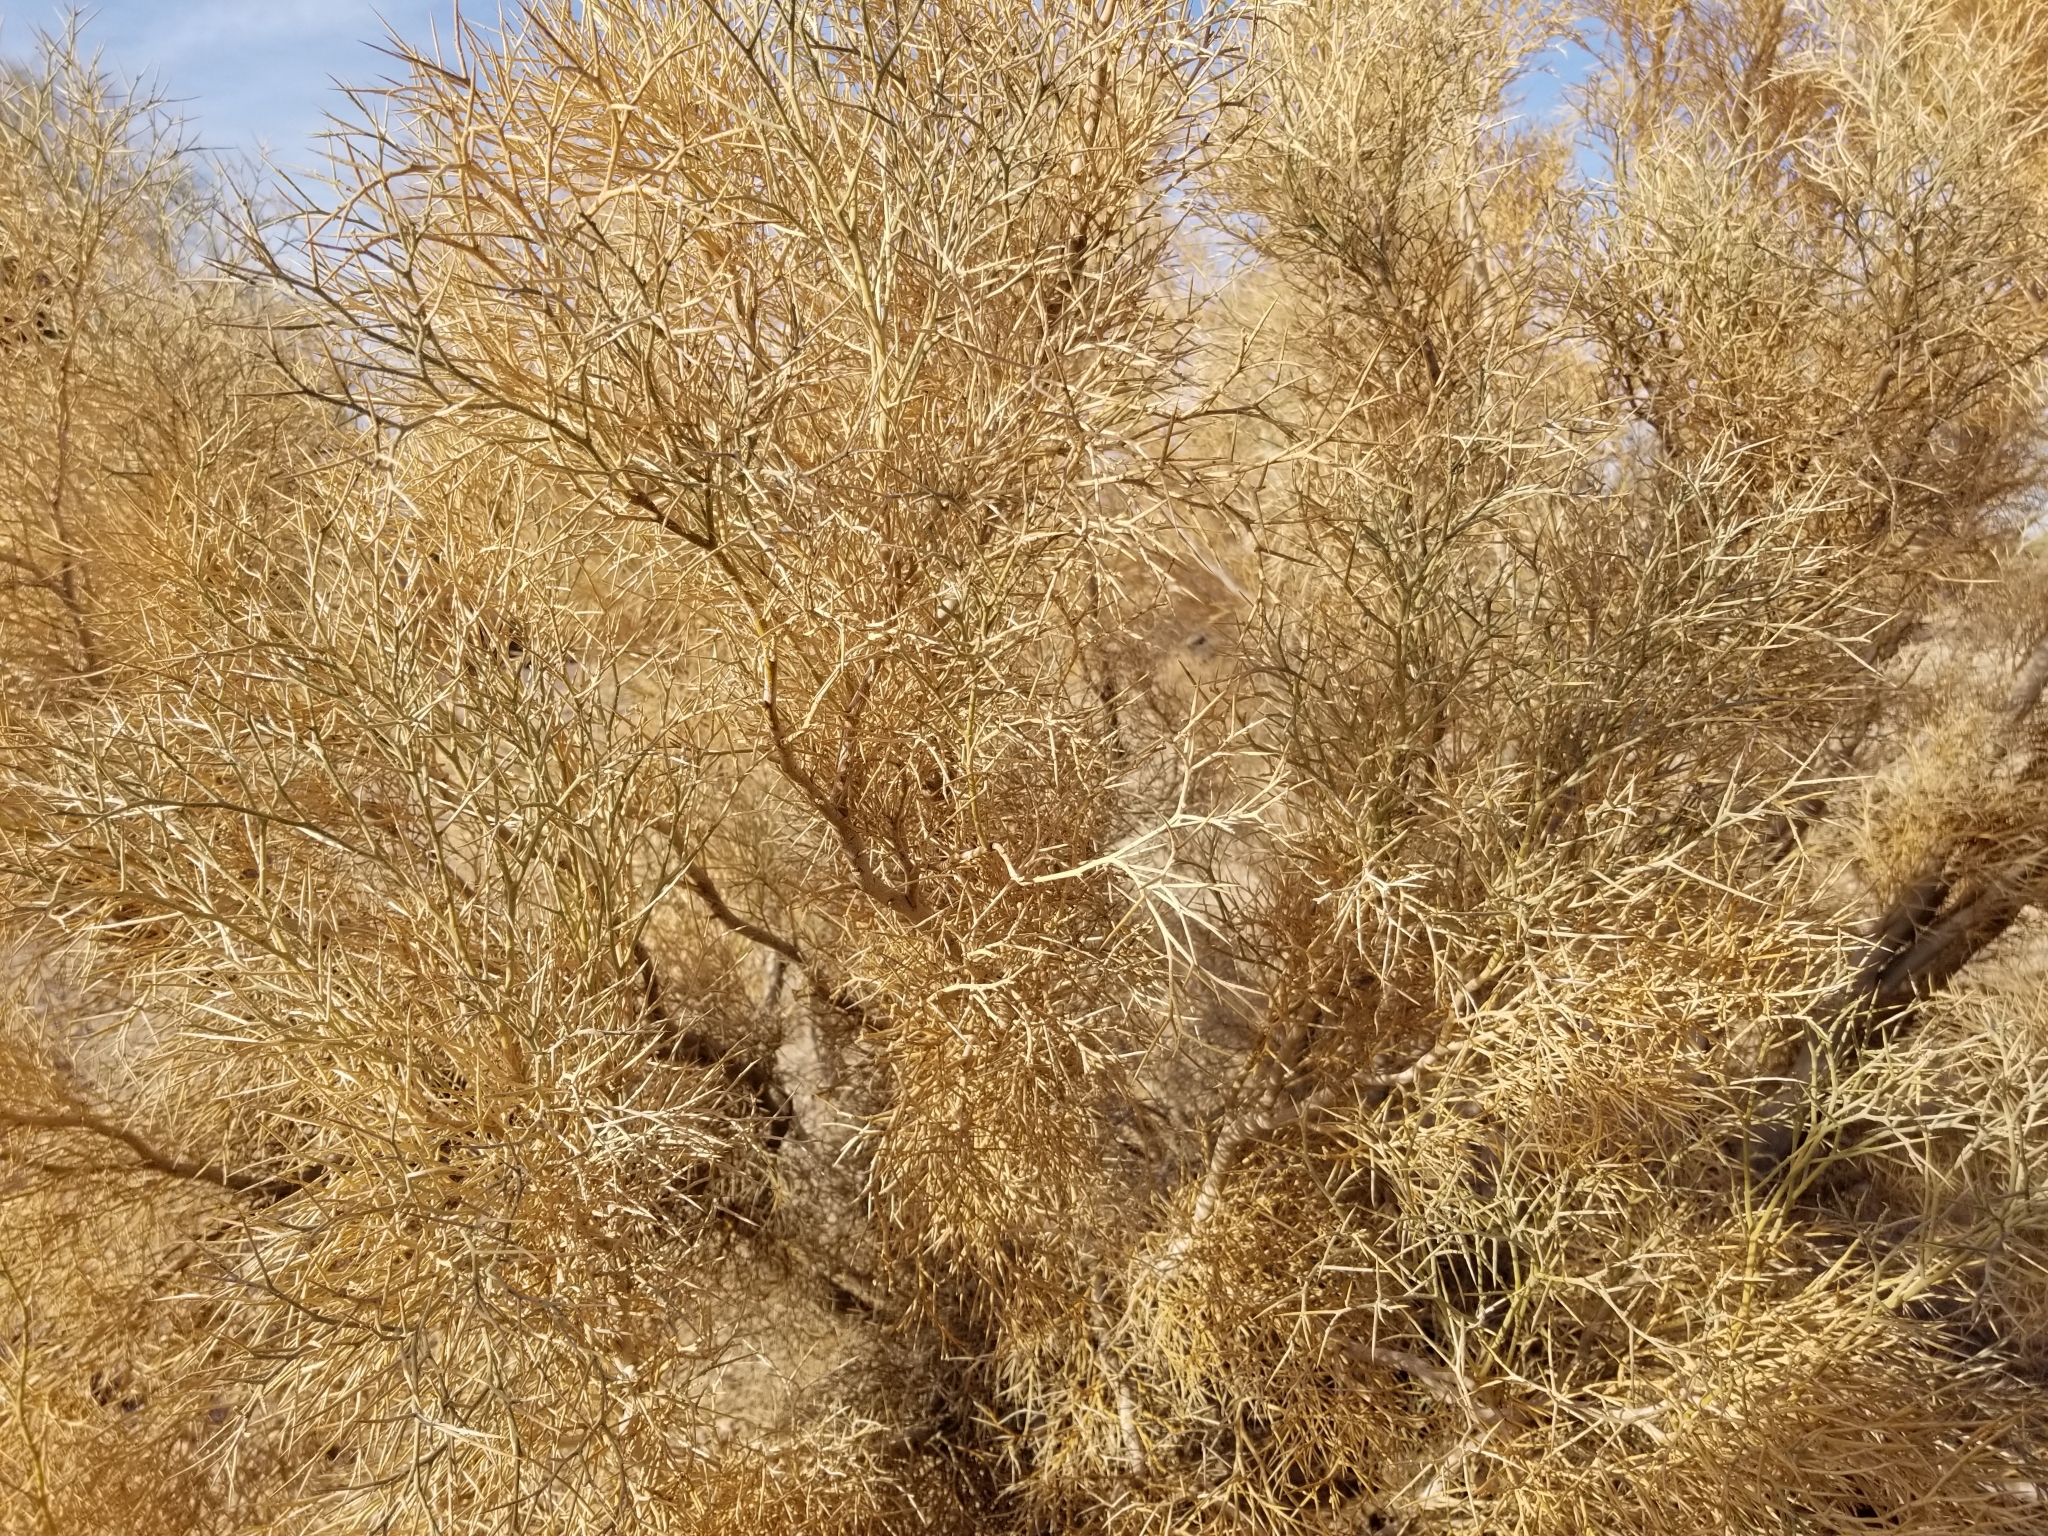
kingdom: Plantae
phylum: Tracheophyta
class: Magnoliopsida
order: Fabales
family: Fabaceae
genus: Psorothamnus
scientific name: Psorothamnus spinosus
